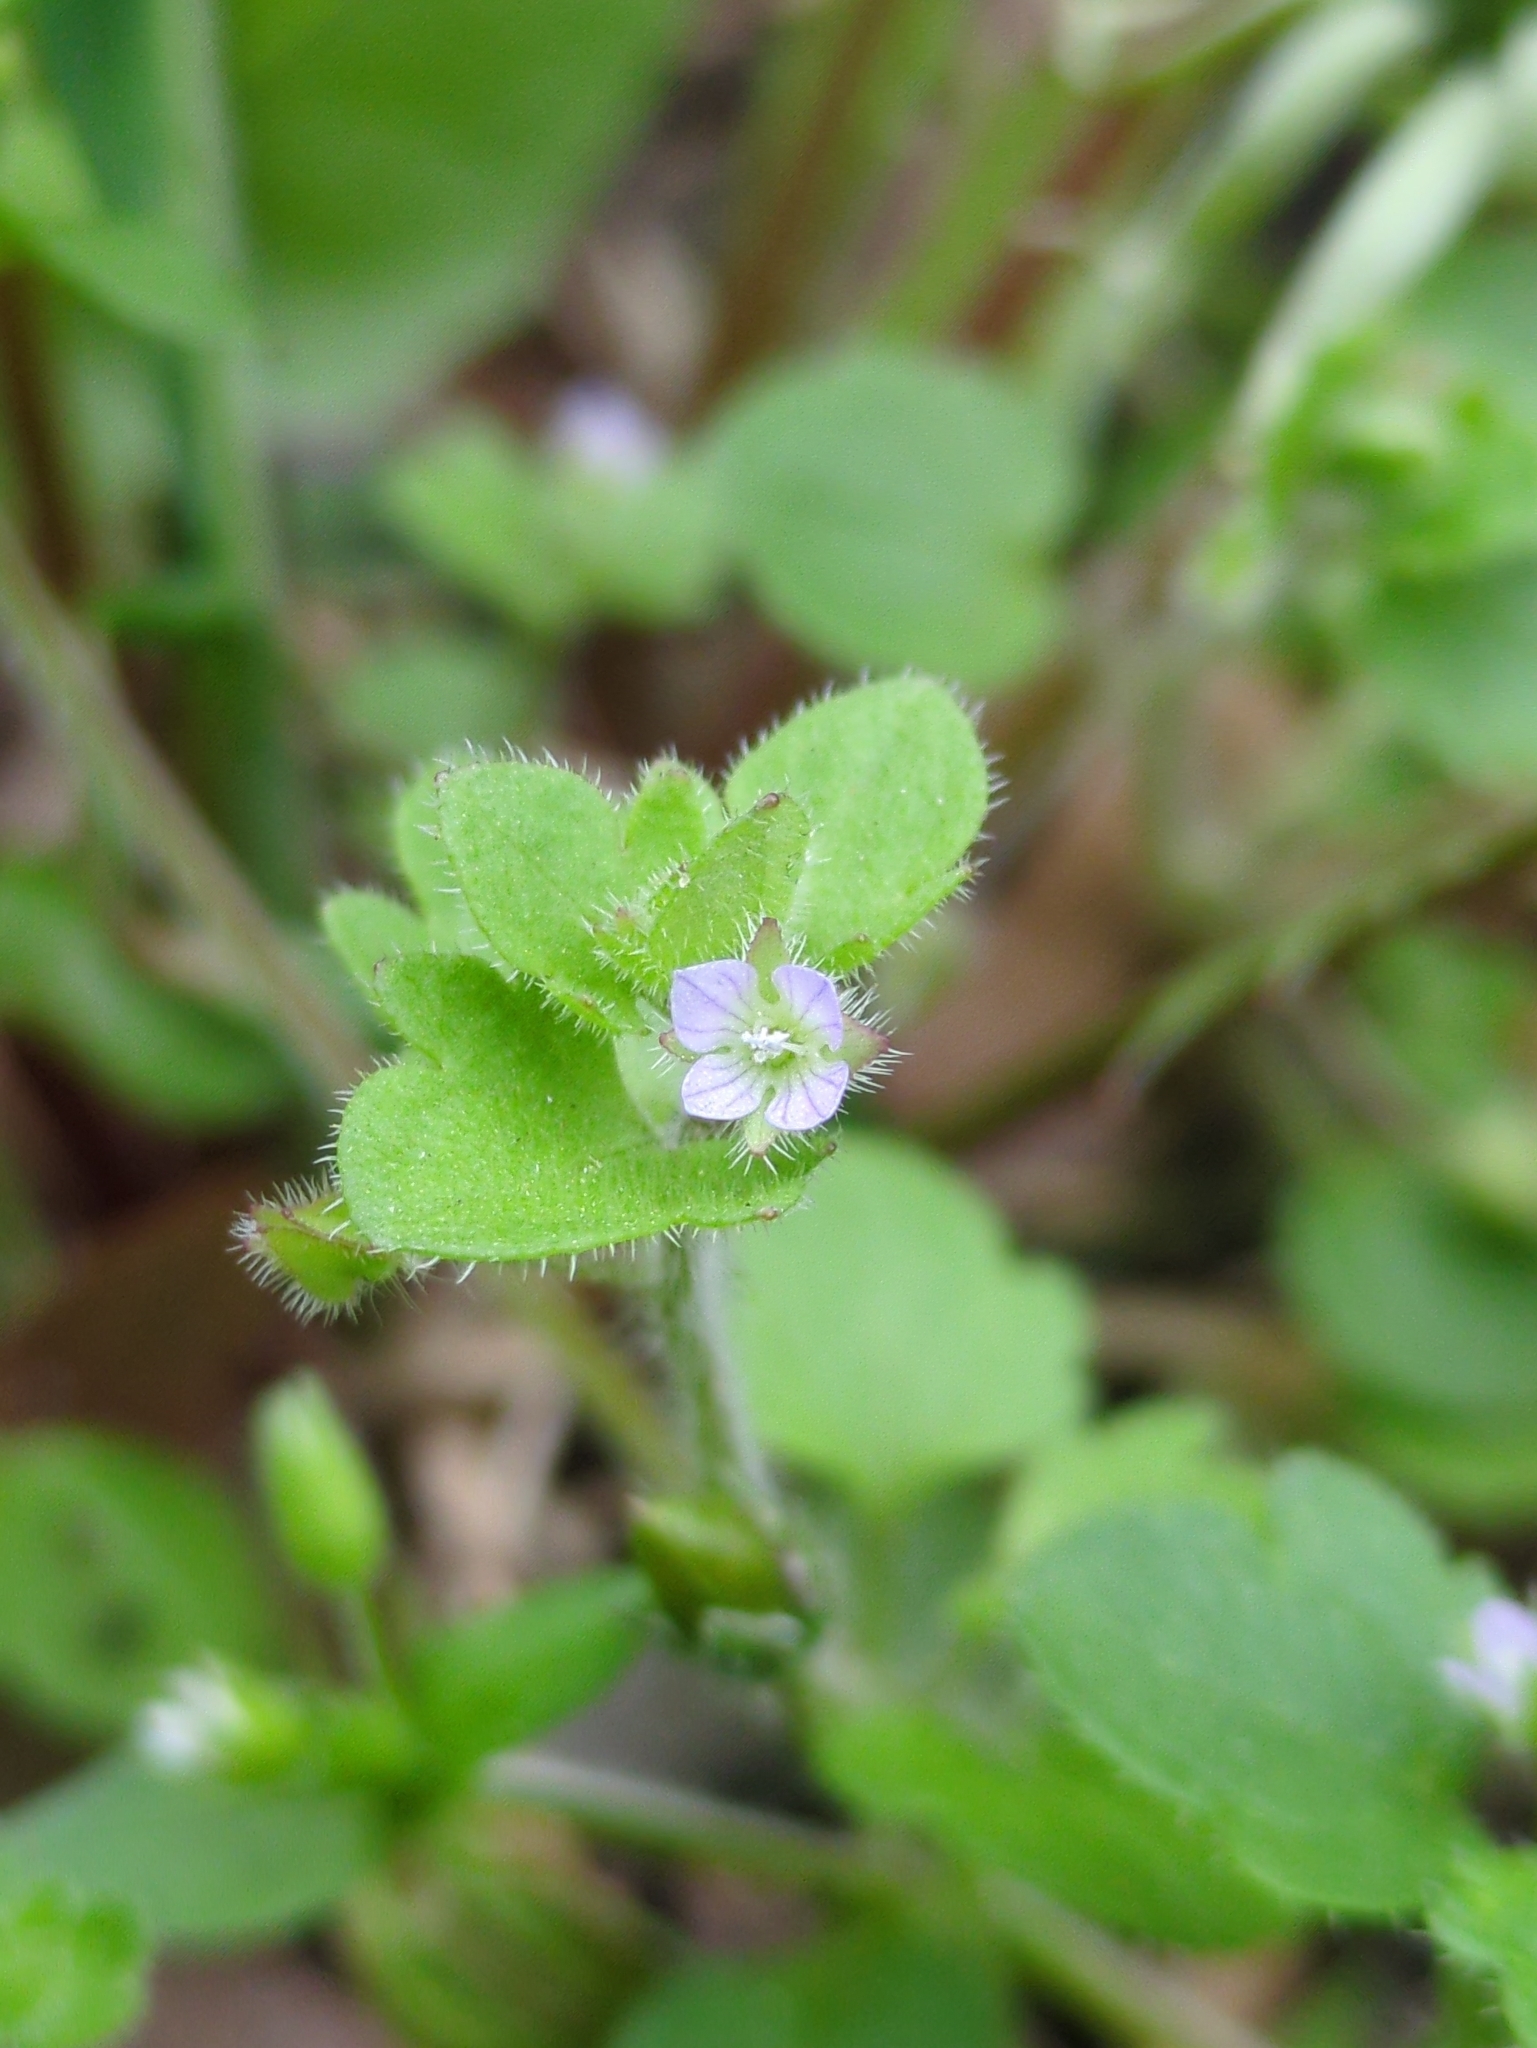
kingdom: Plantae
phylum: Tracheophyta
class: Magnoliopsida
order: Lamiales
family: Plantaginaceae
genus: Veronica
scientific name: Veronica sublobata
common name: False ivy-leaved speedwell
